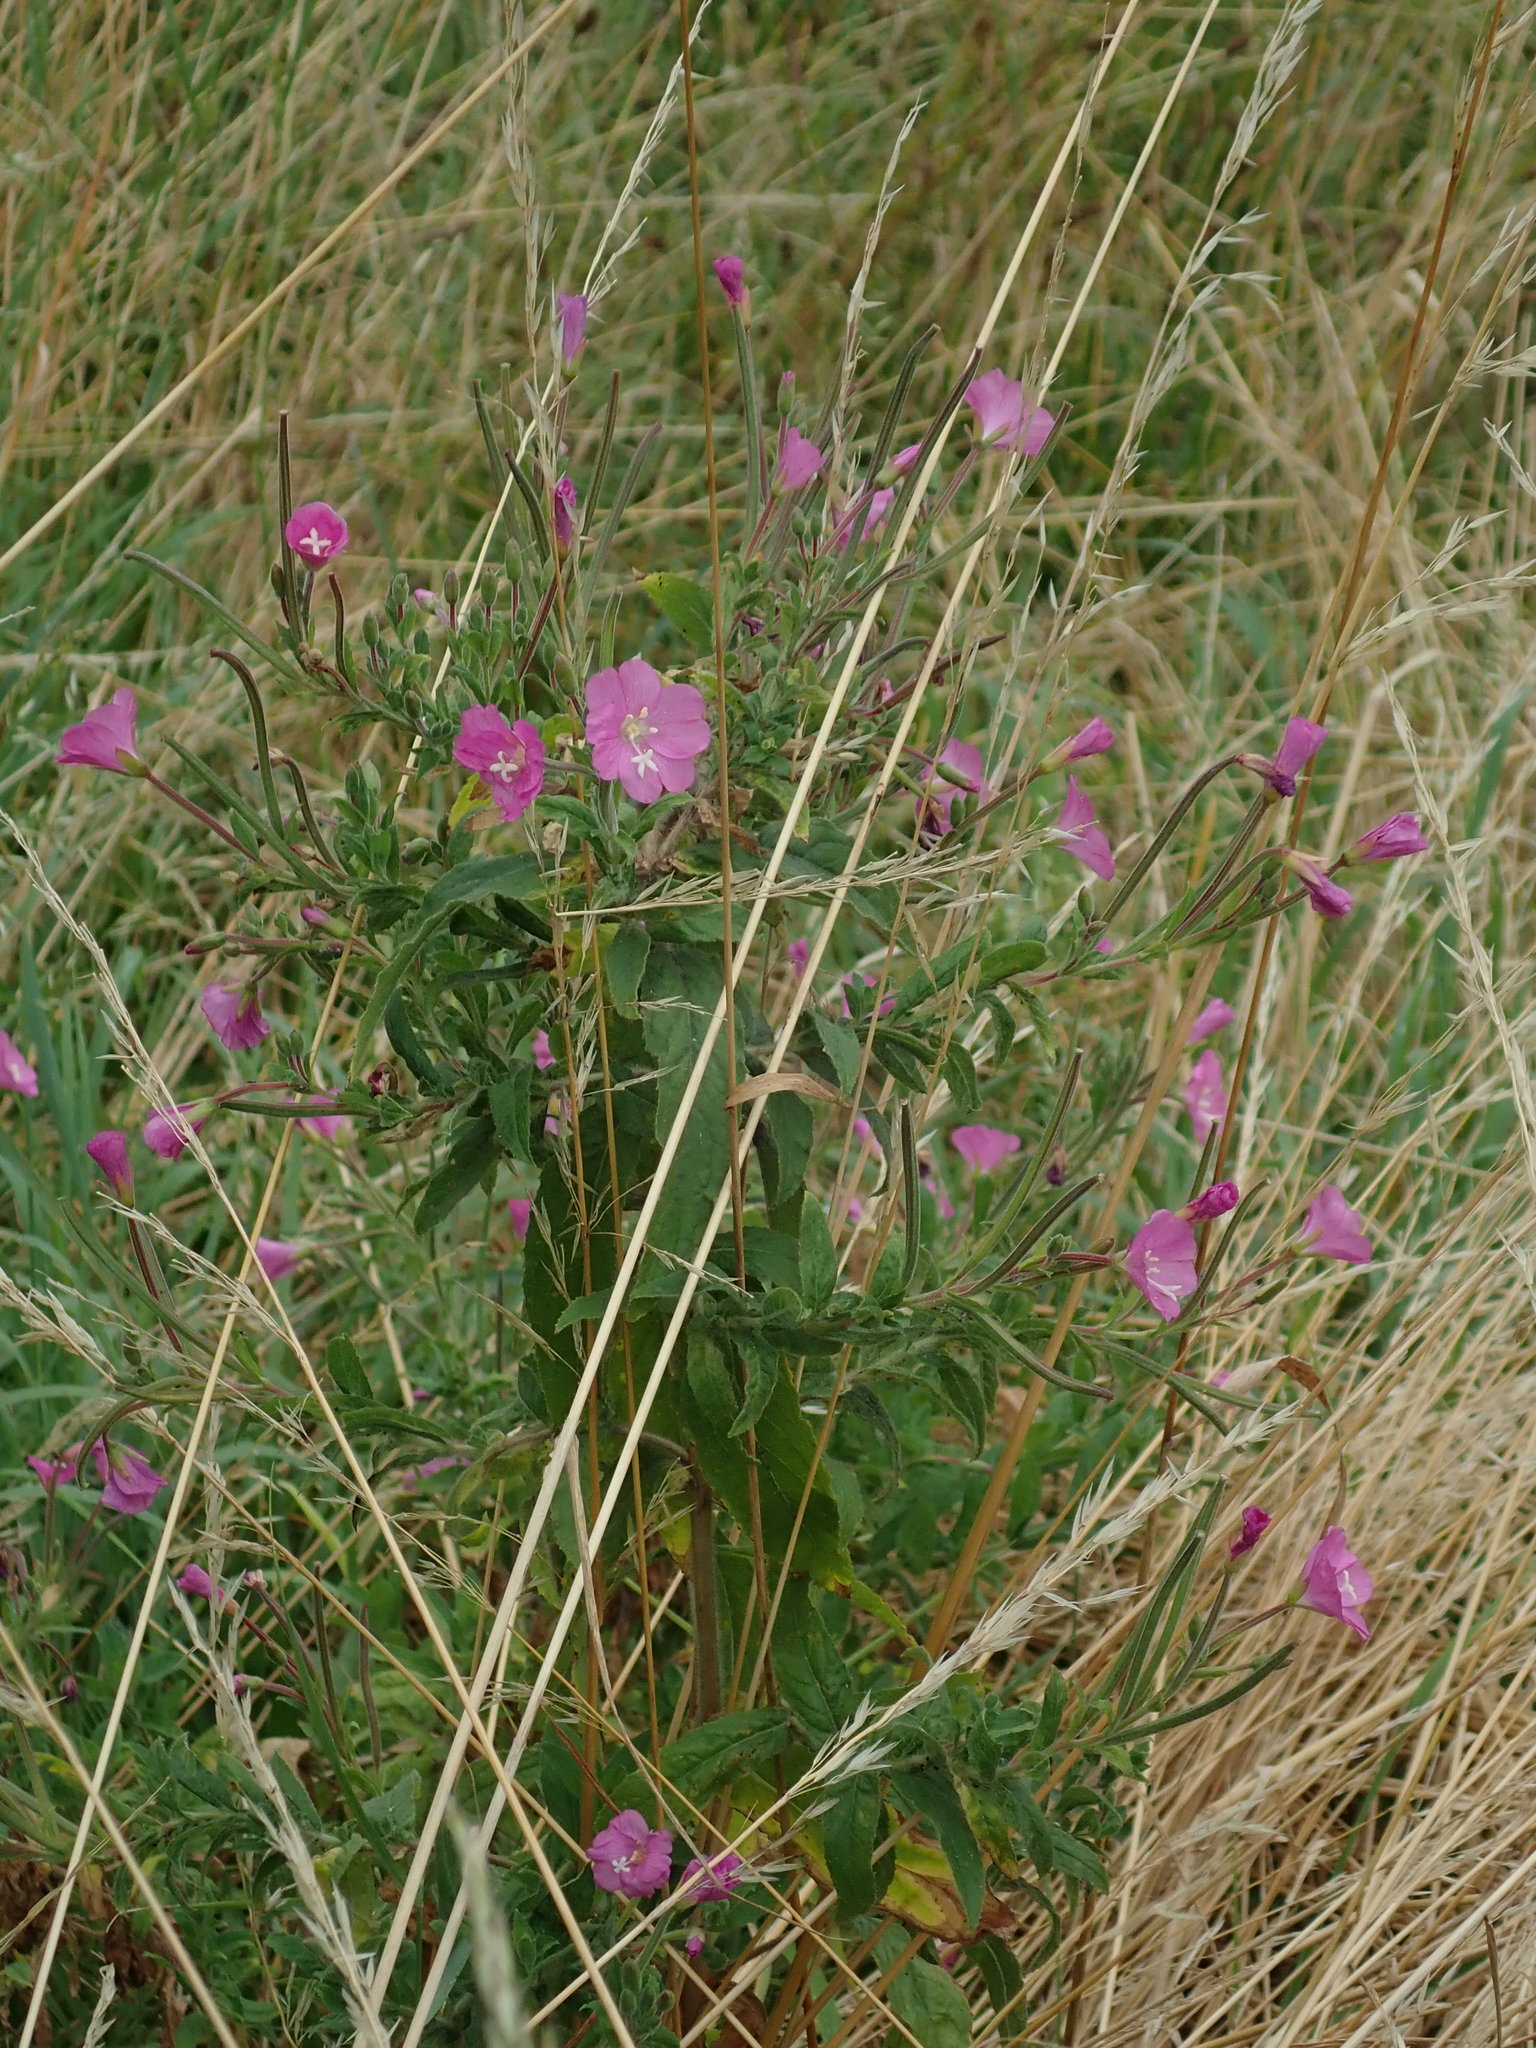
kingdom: Plantae
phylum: Tracheophyta
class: Magnoliopsida
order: Myrtales
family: Onagraceae
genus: Epilobium
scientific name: Epilobium hirsutum
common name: Great willowherb
